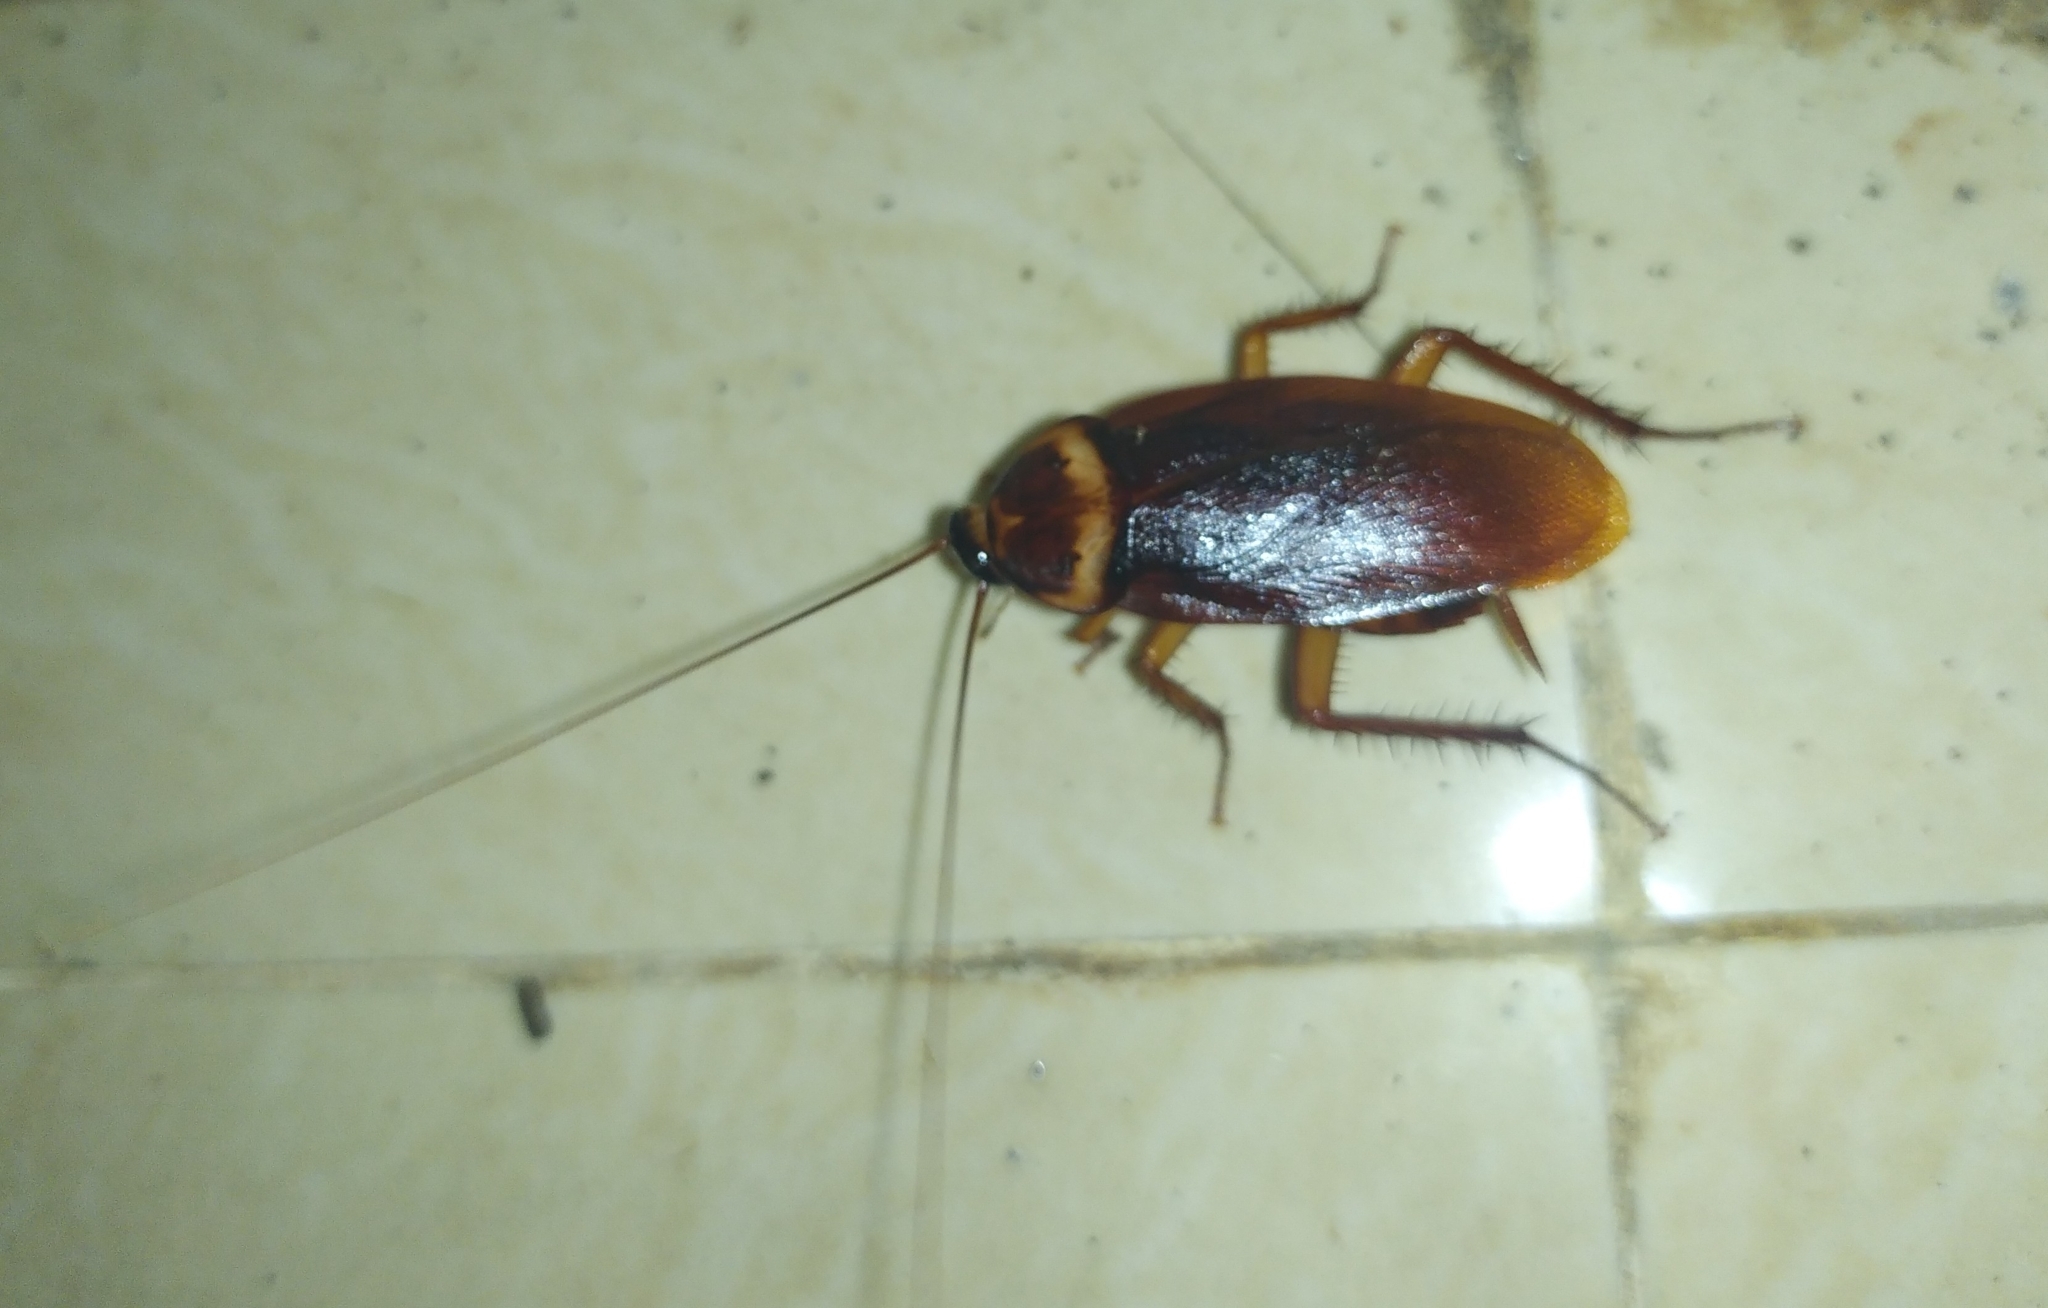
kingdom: Animalia
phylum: Arthropoda
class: Insecta
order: Blattodea
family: Blattidae
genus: Periplaneta
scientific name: Periplaneta americana
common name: American cockroach
